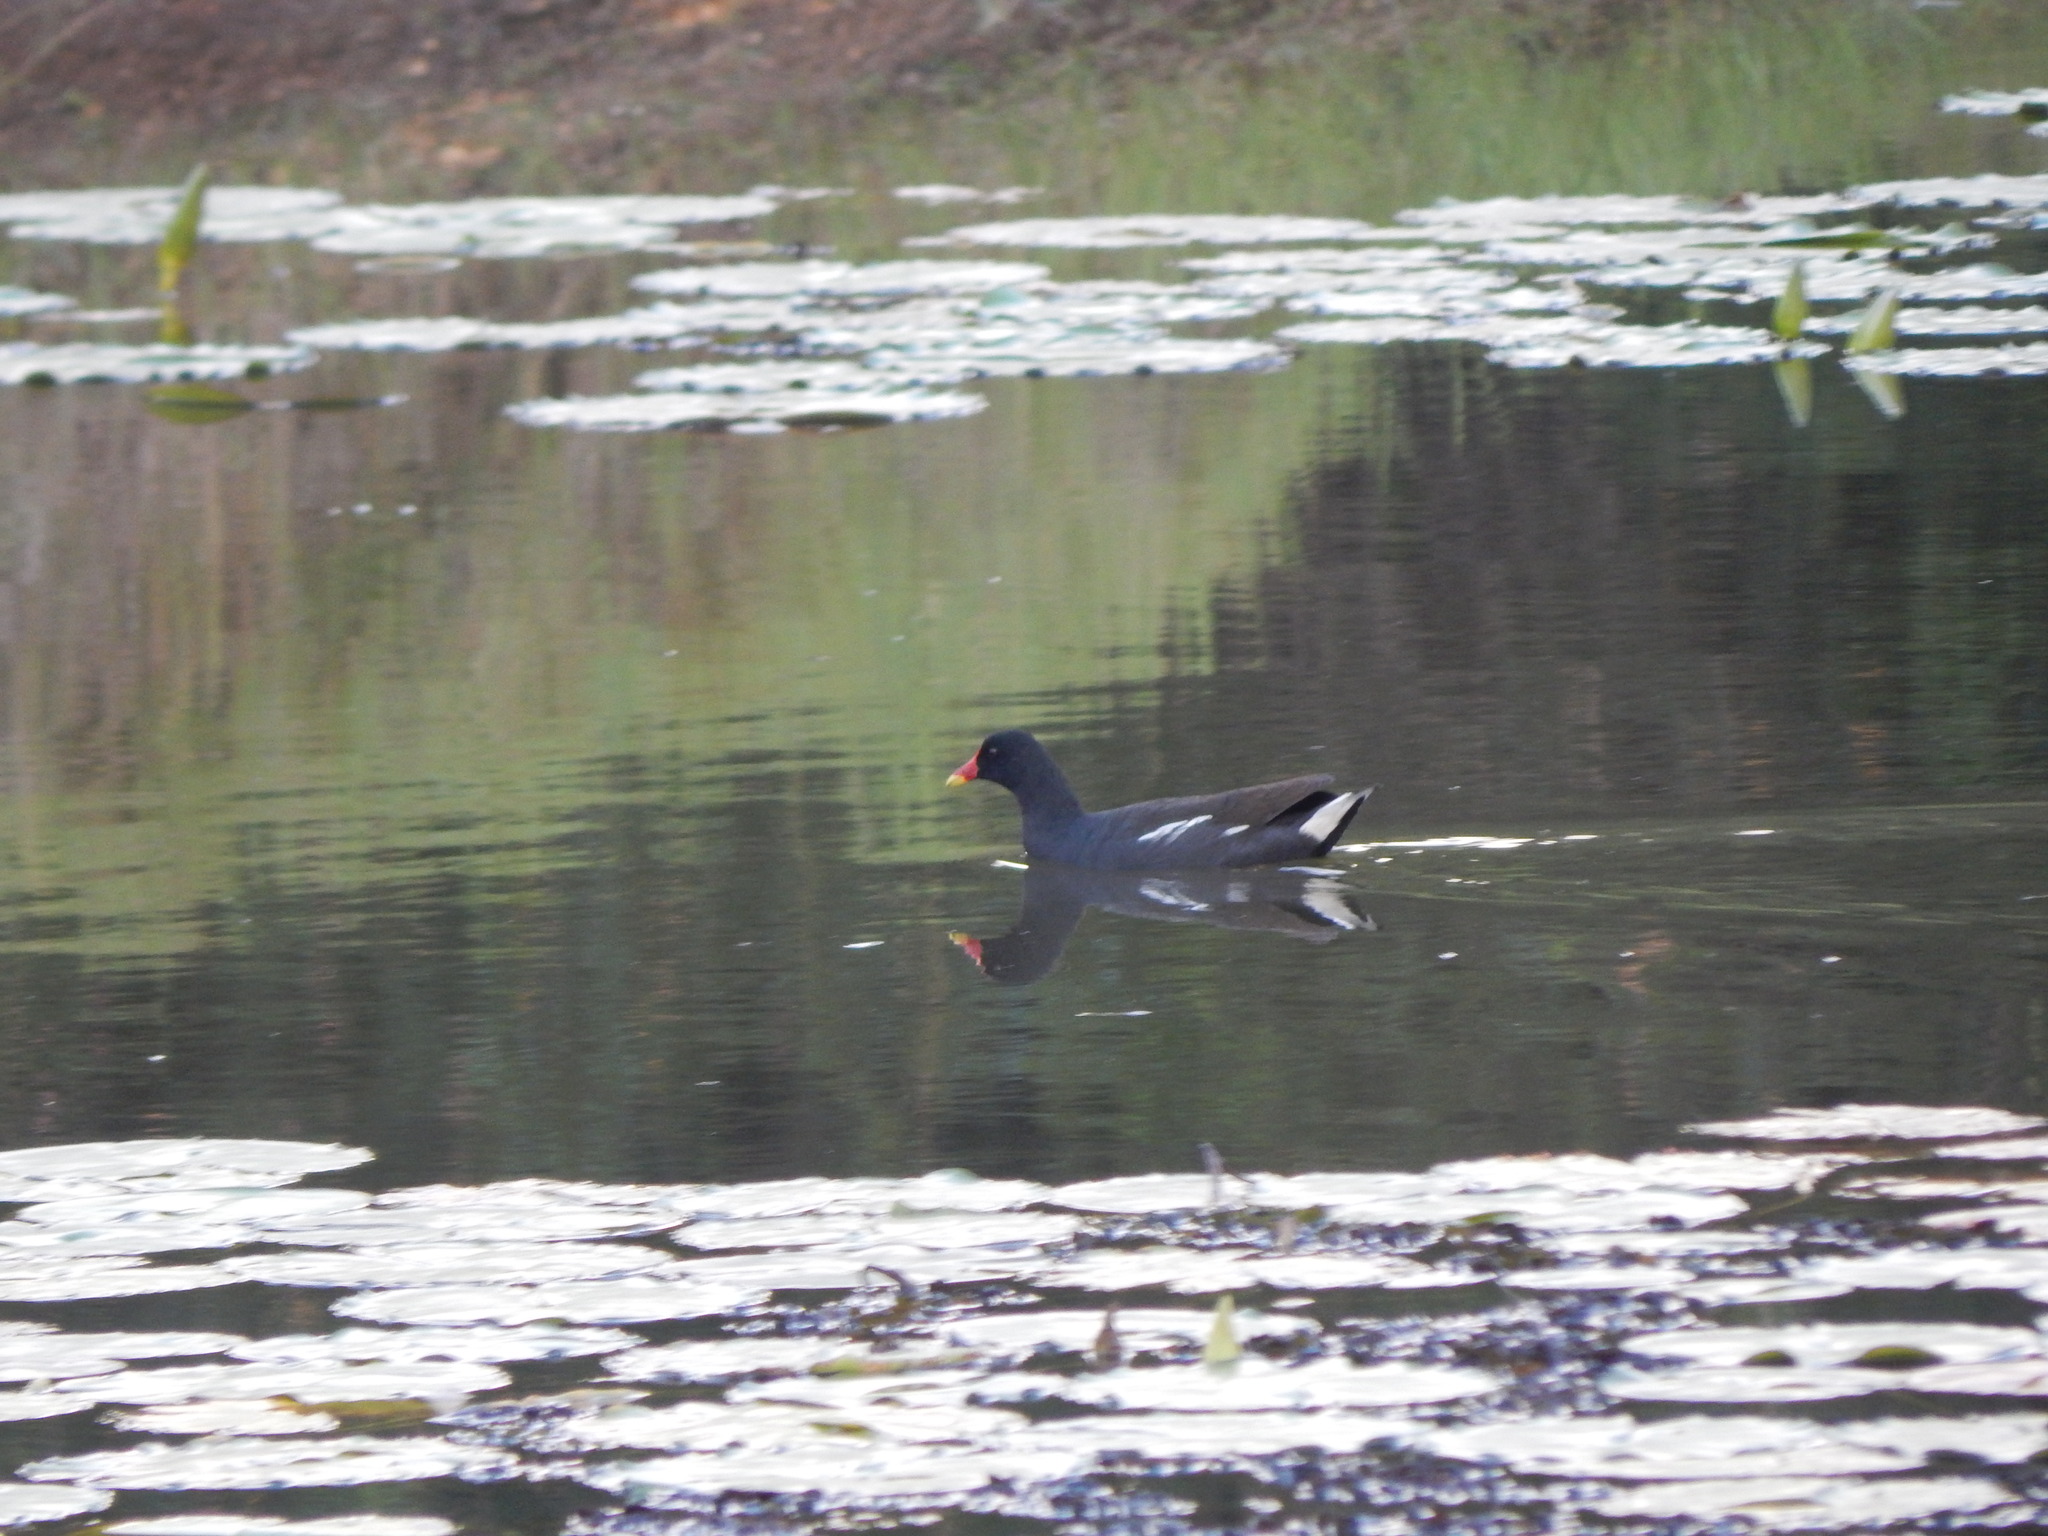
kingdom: Animalia
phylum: Chordata
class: Aves
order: Gruiformes
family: Rallidae
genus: Gallinula
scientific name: Gallinula chloropus
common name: Common moorhen
